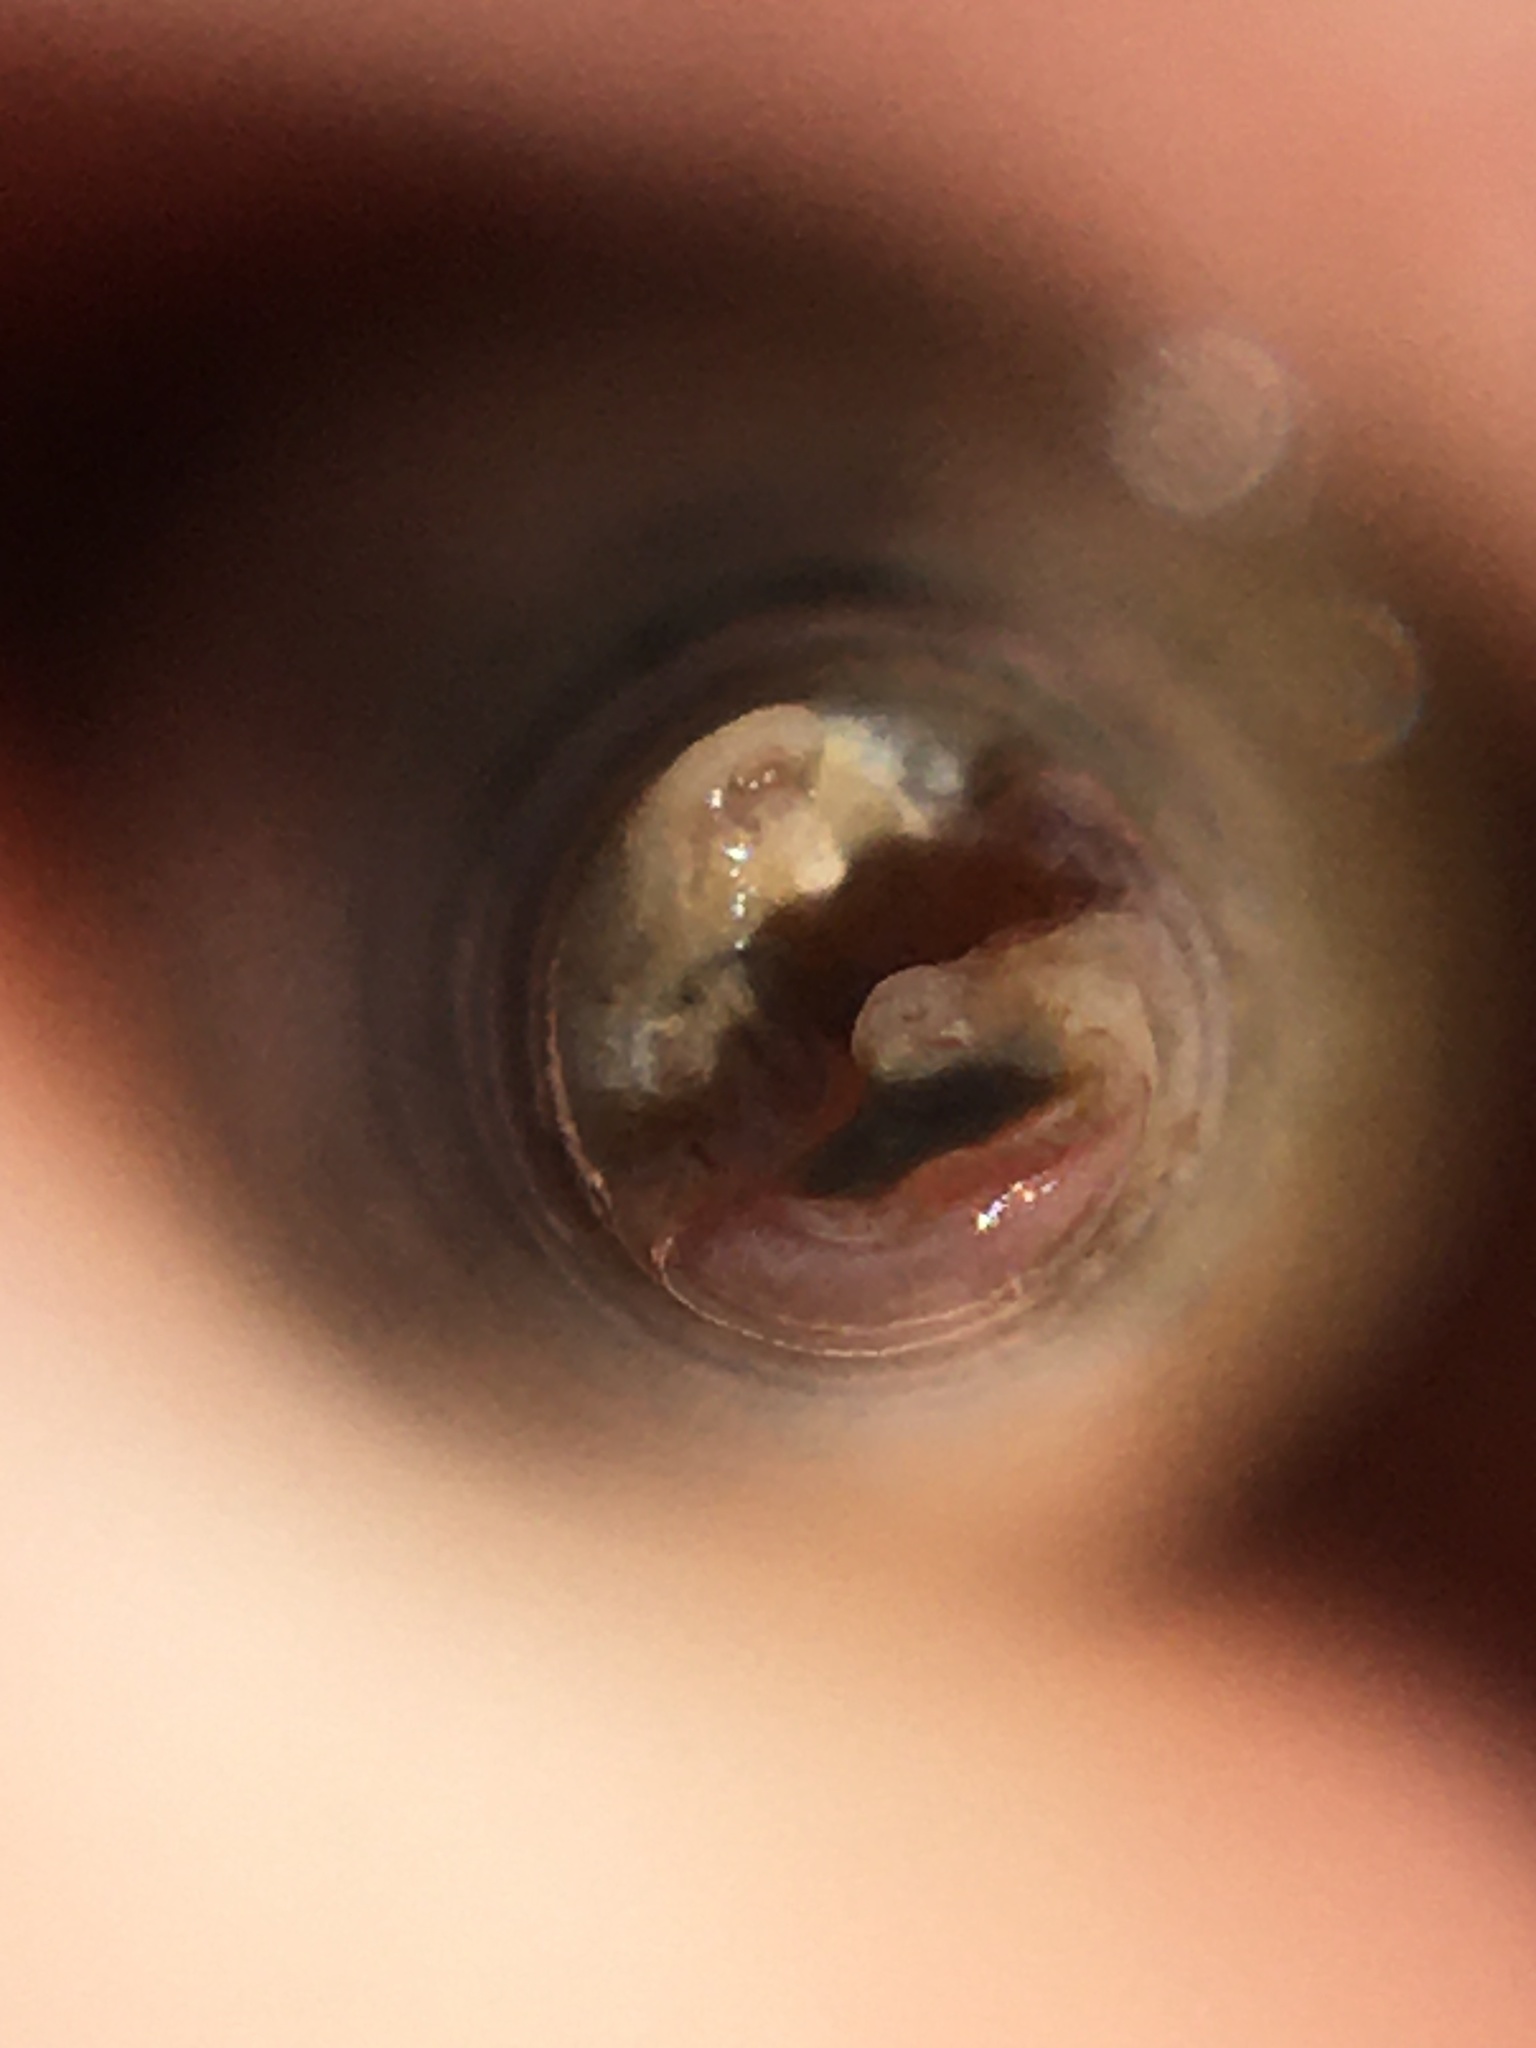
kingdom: Animalia
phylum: Mollusca
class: Gastropoda
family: Turritellidae
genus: Turritellinella
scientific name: Turritellinella tricarinata
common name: Auger shell
